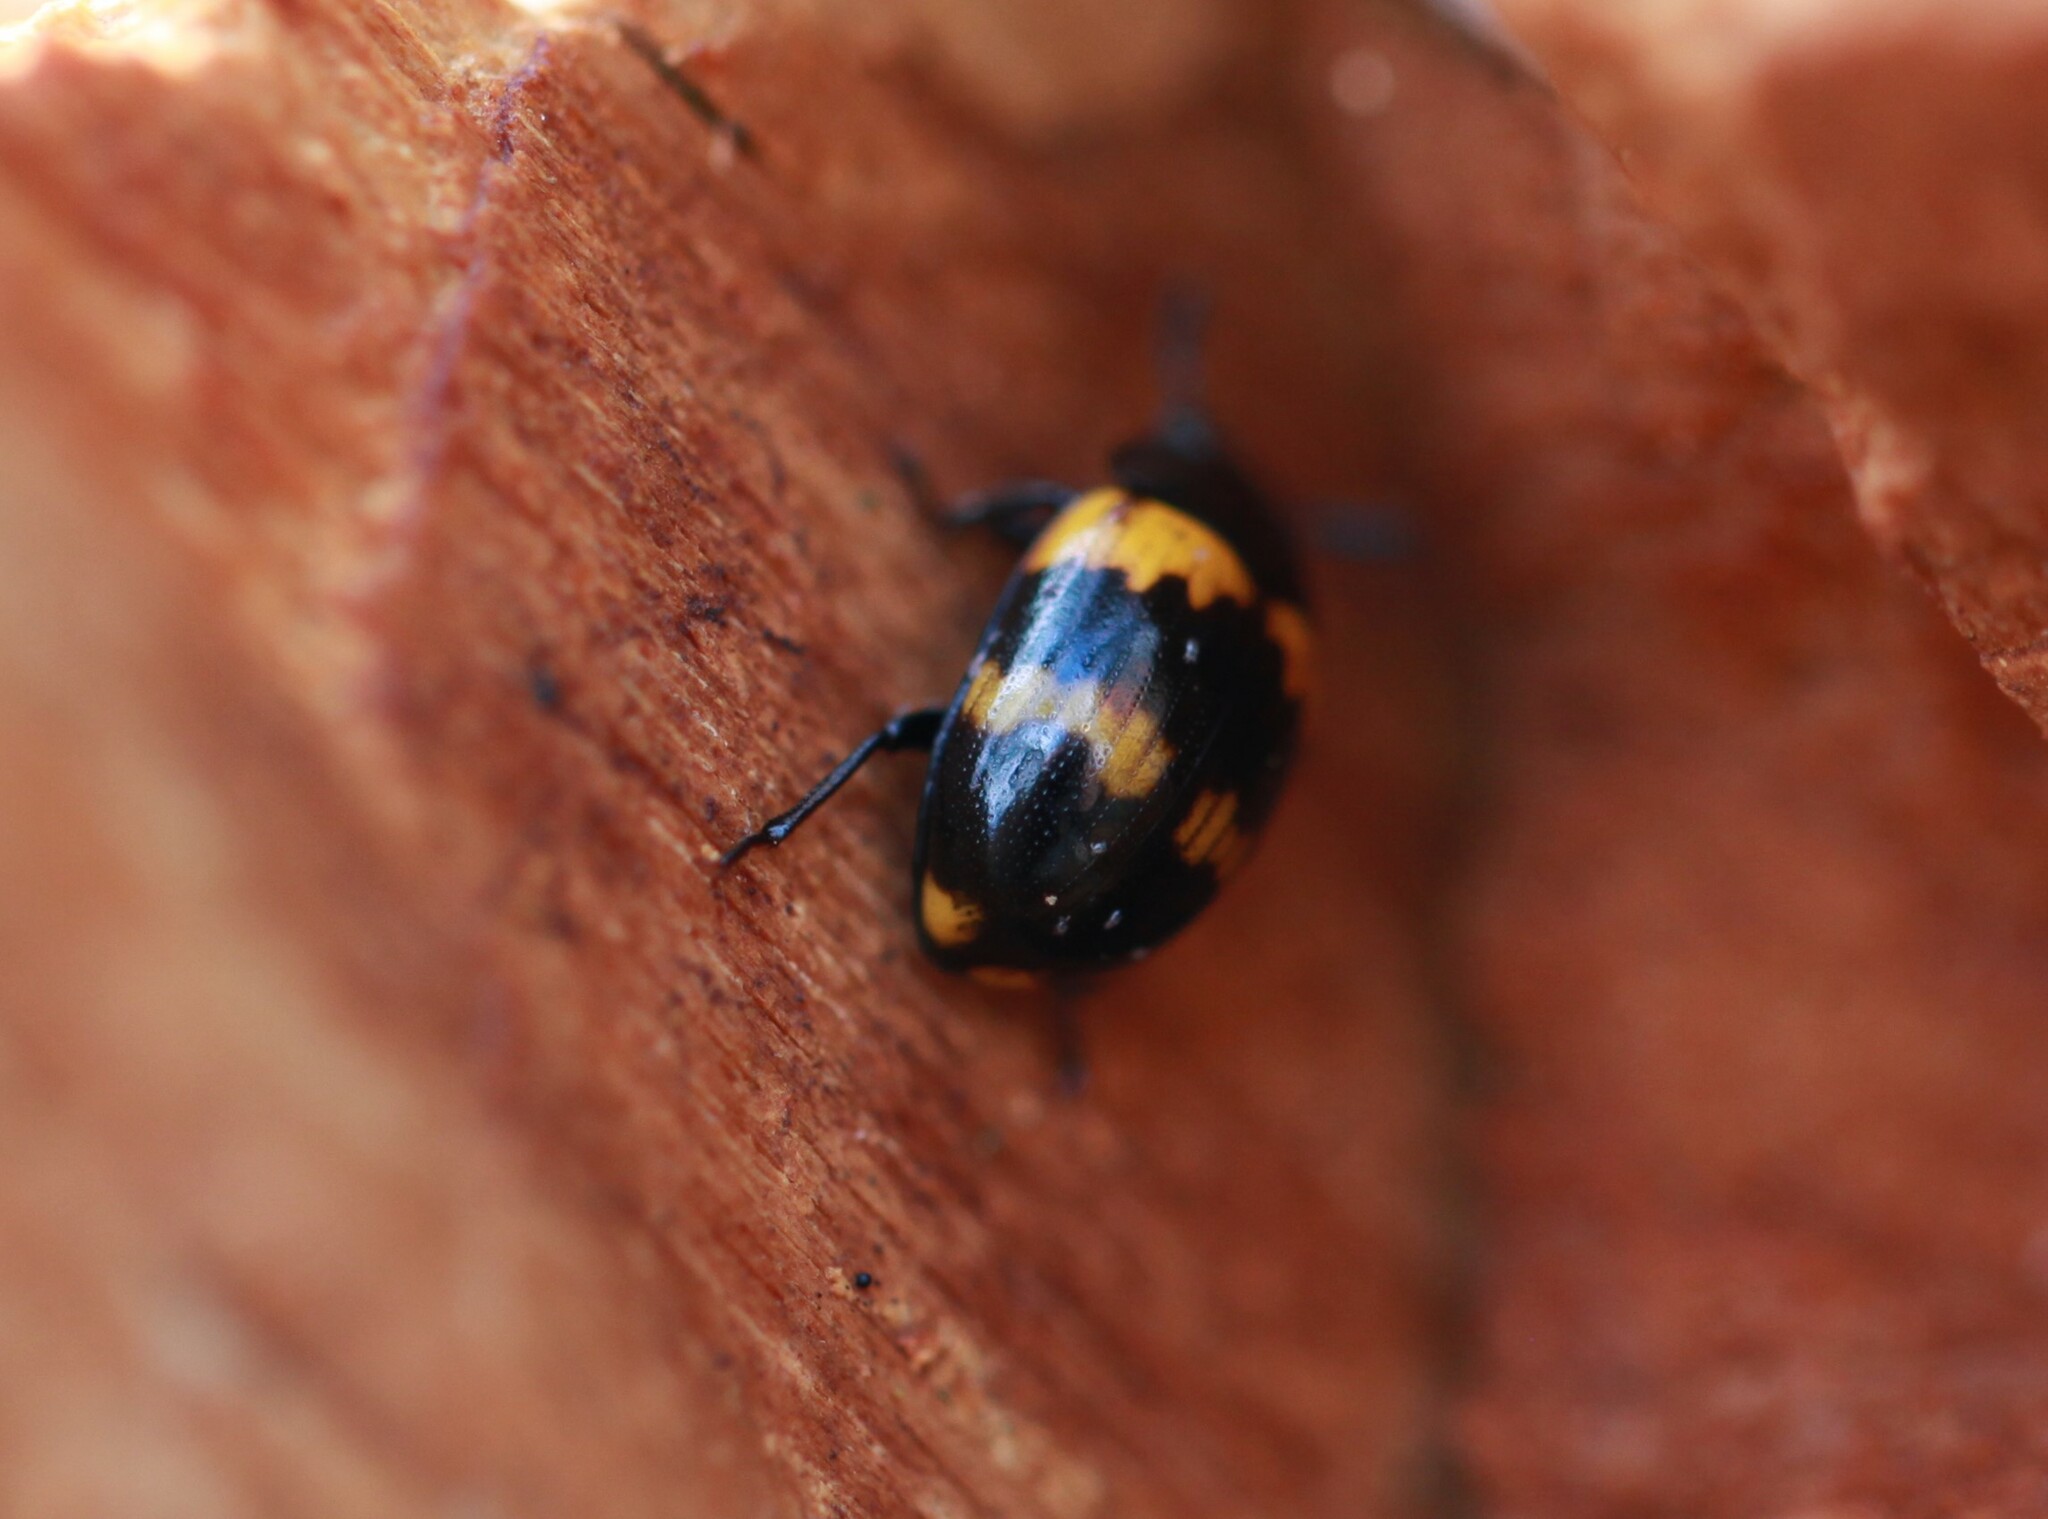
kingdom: Animalia
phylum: Arthropoda
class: Insecta
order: Coleoptera
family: Tenebrionidae
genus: Diaperis
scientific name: Diaperis boleti
